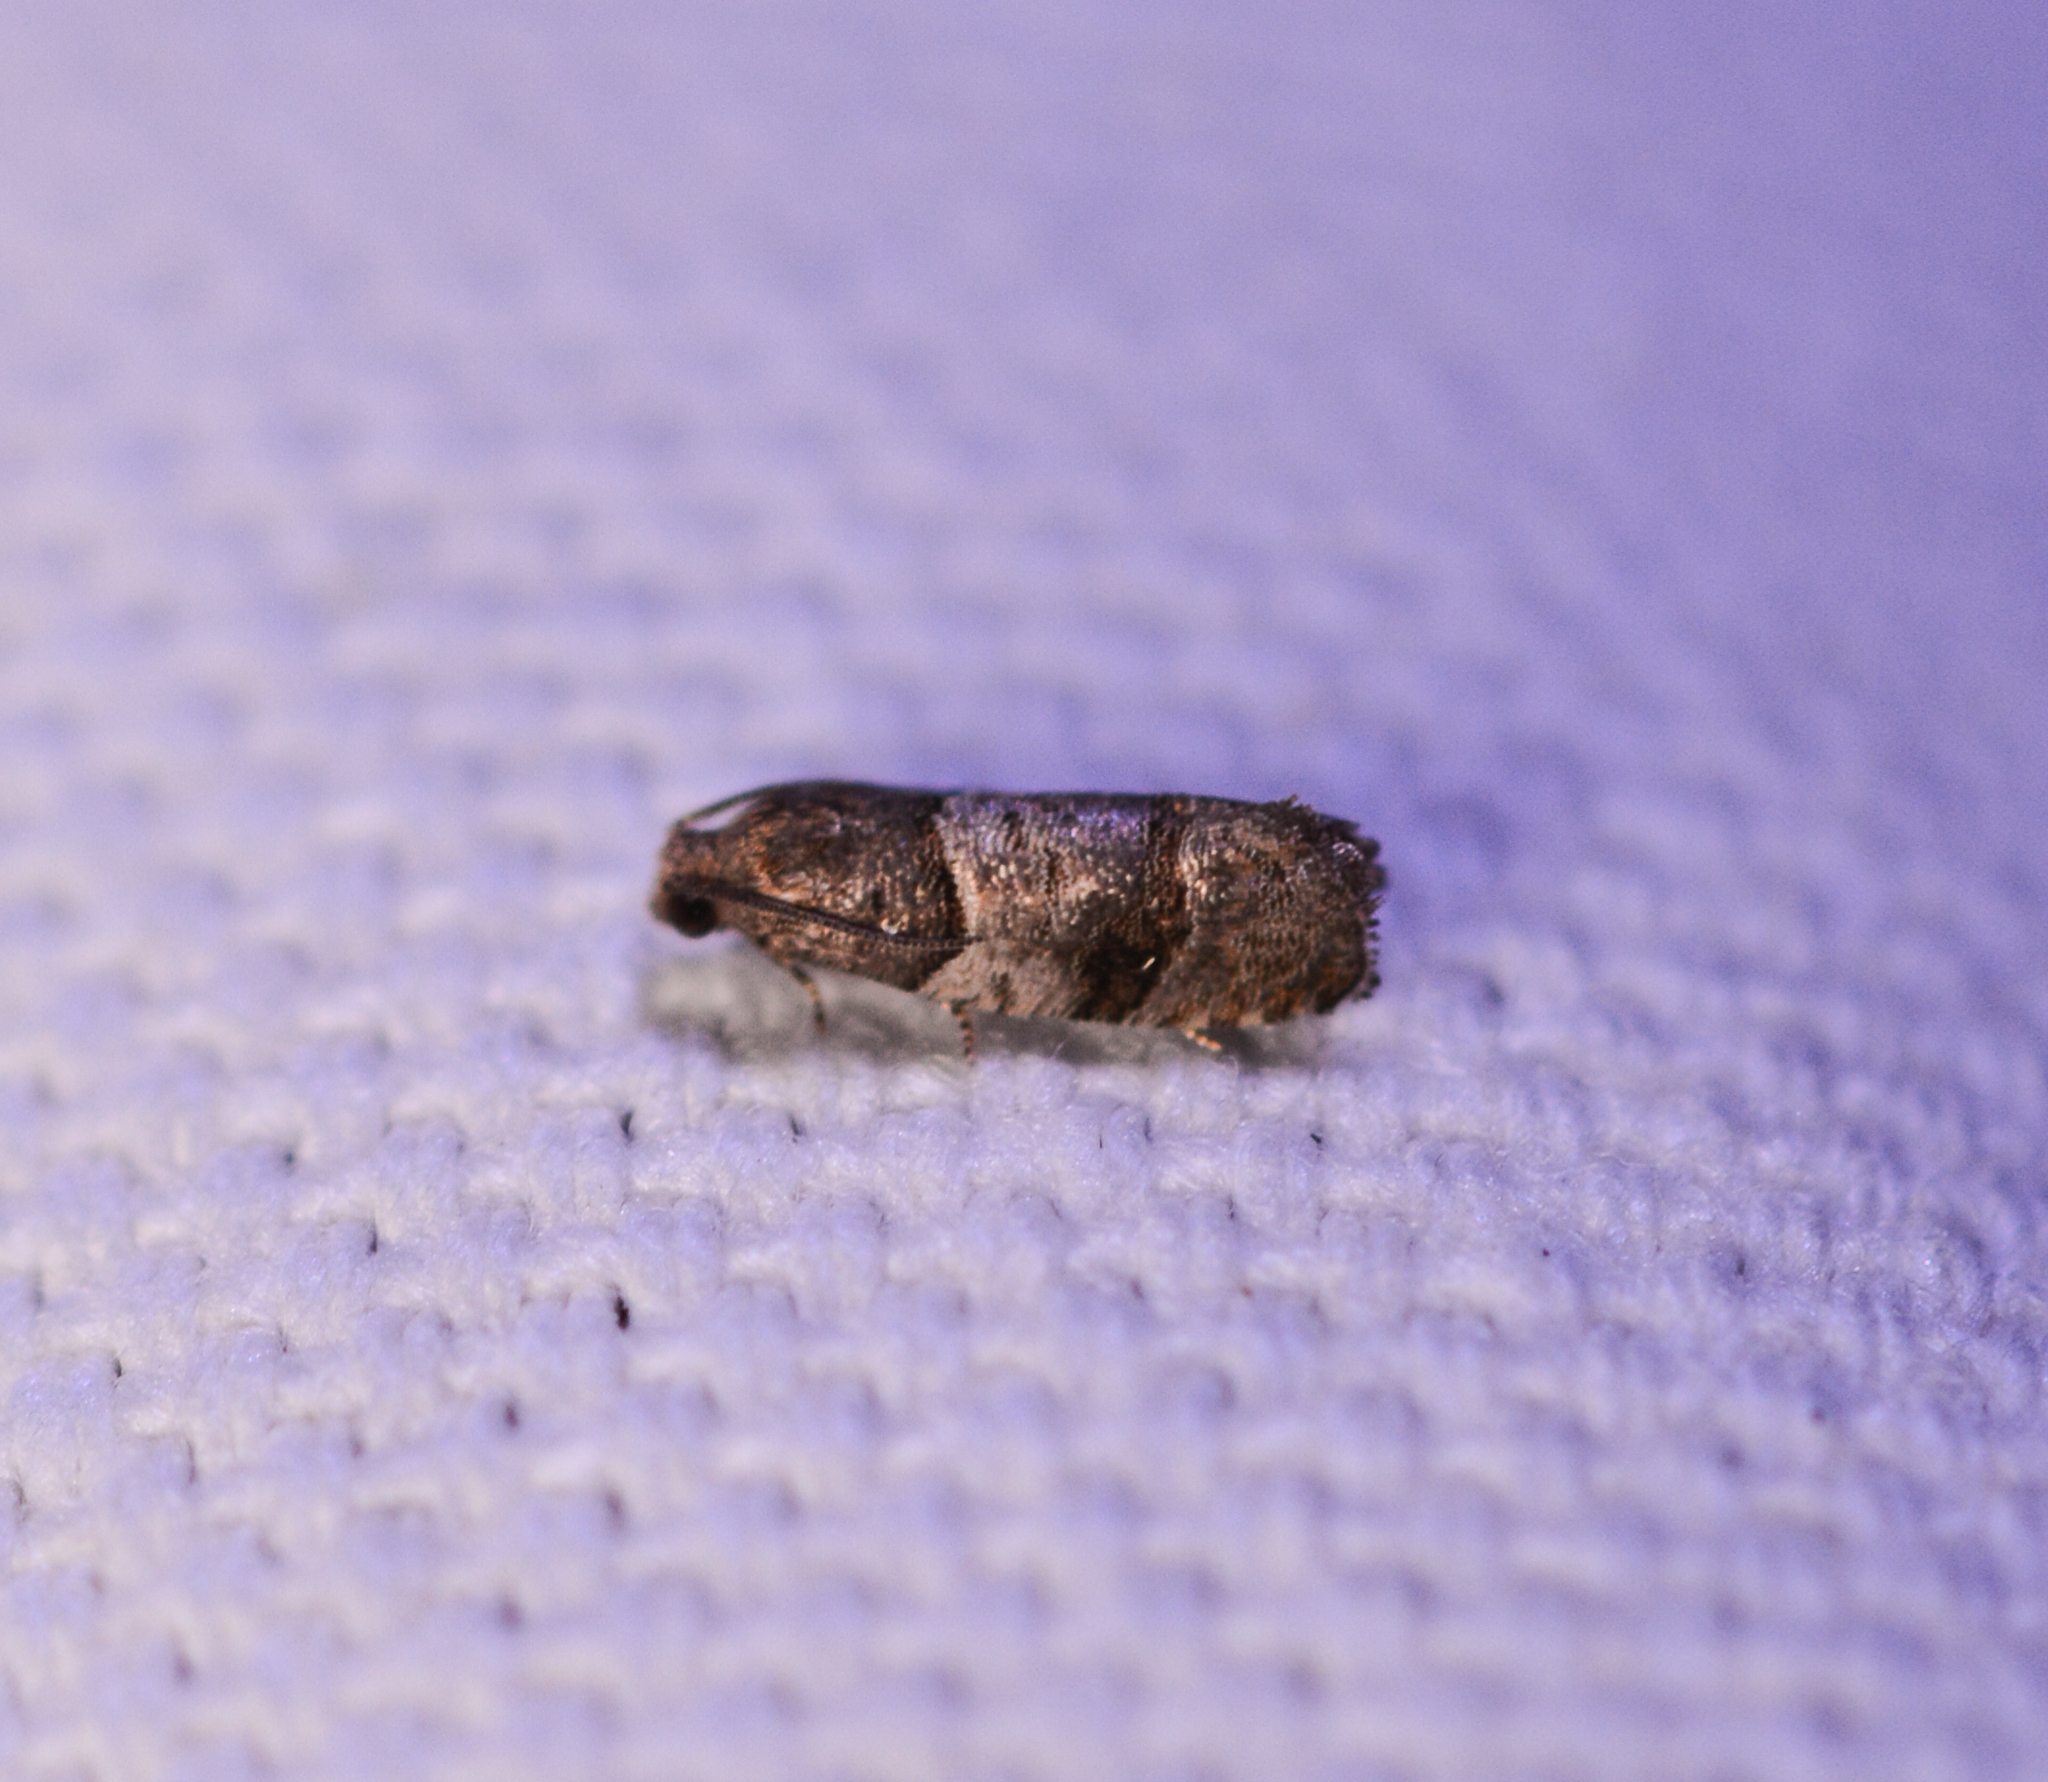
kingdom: Animalia
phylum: Arthropoda
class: Insecta
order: Lepidoptera
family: Tortricidae
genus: Larisa
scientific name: Larisa subsolana
